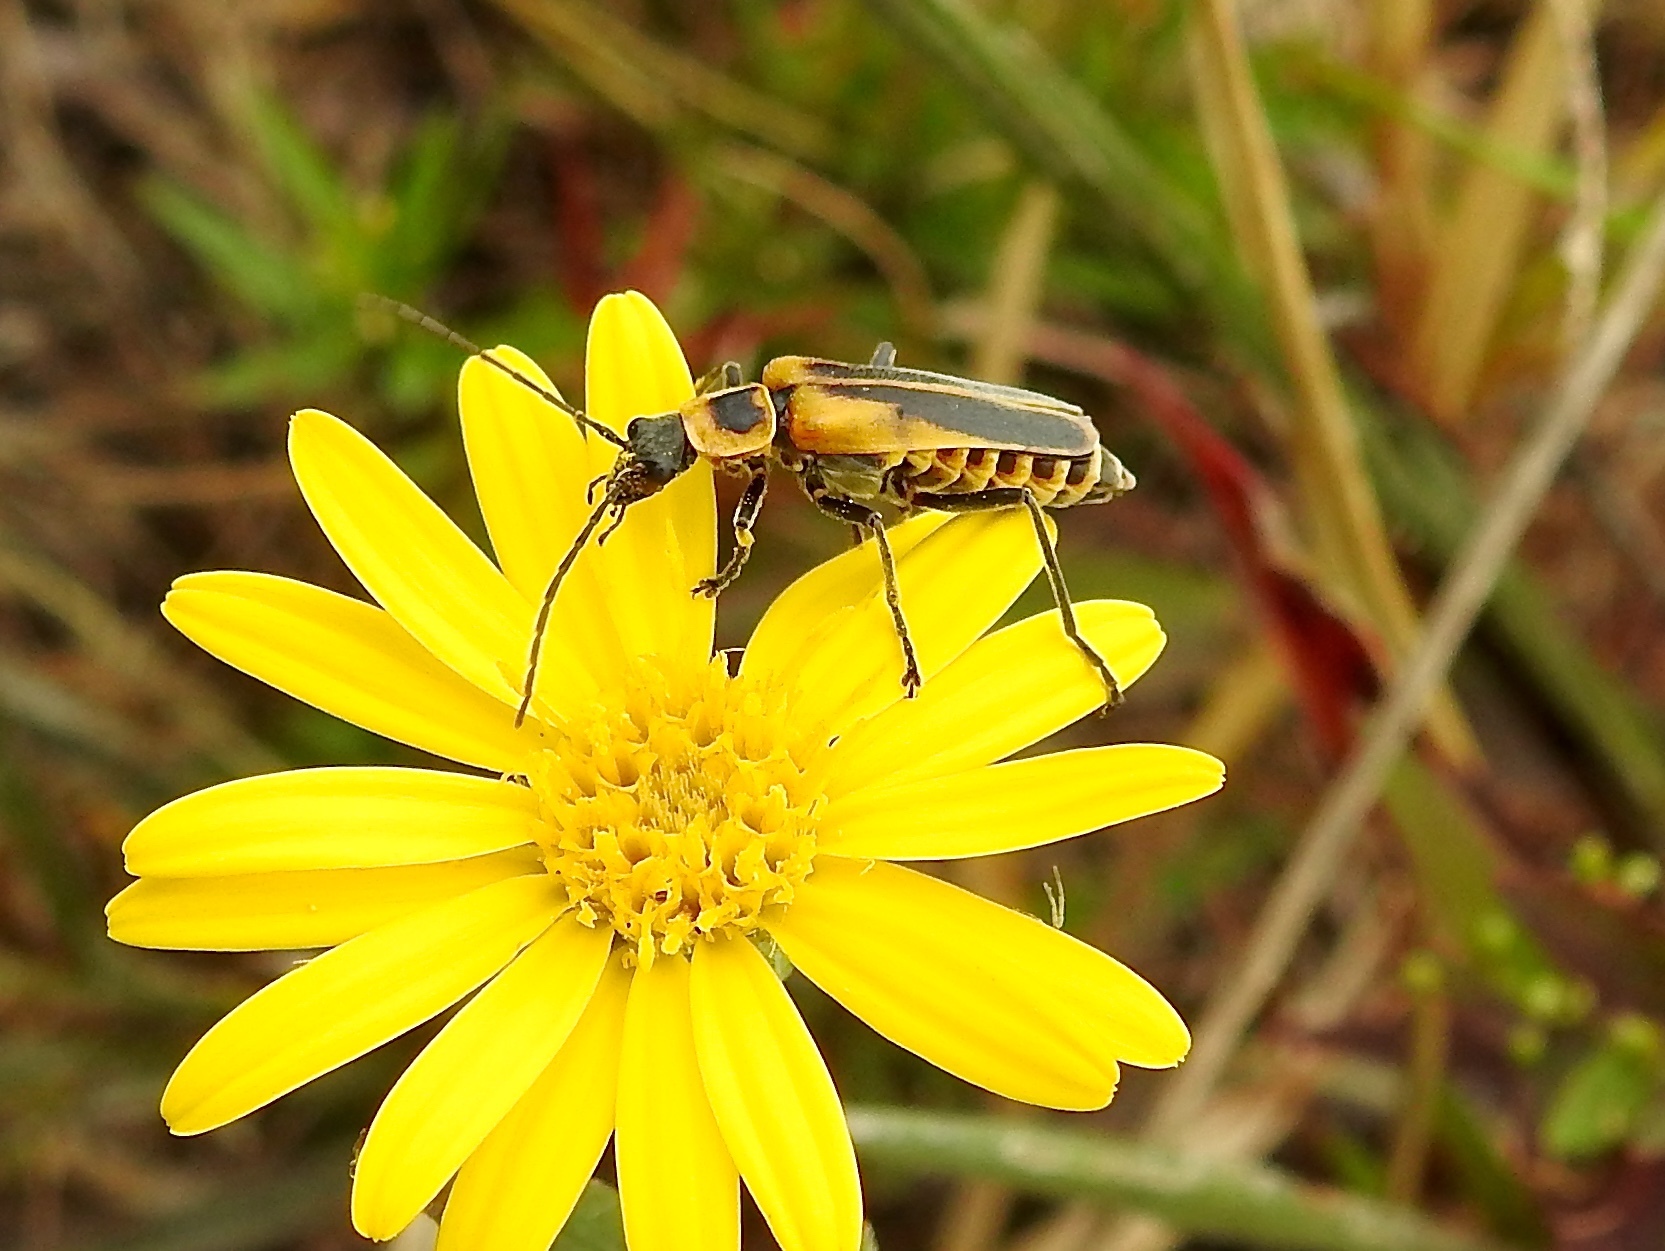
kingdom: Animalia
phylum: Arthropoda
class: Insecta
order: Coleoptera
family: Cantharidae
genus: Chauliognathus
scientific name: Chauliognathus pensylvanicus
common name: Goldenrod soldier beetle
